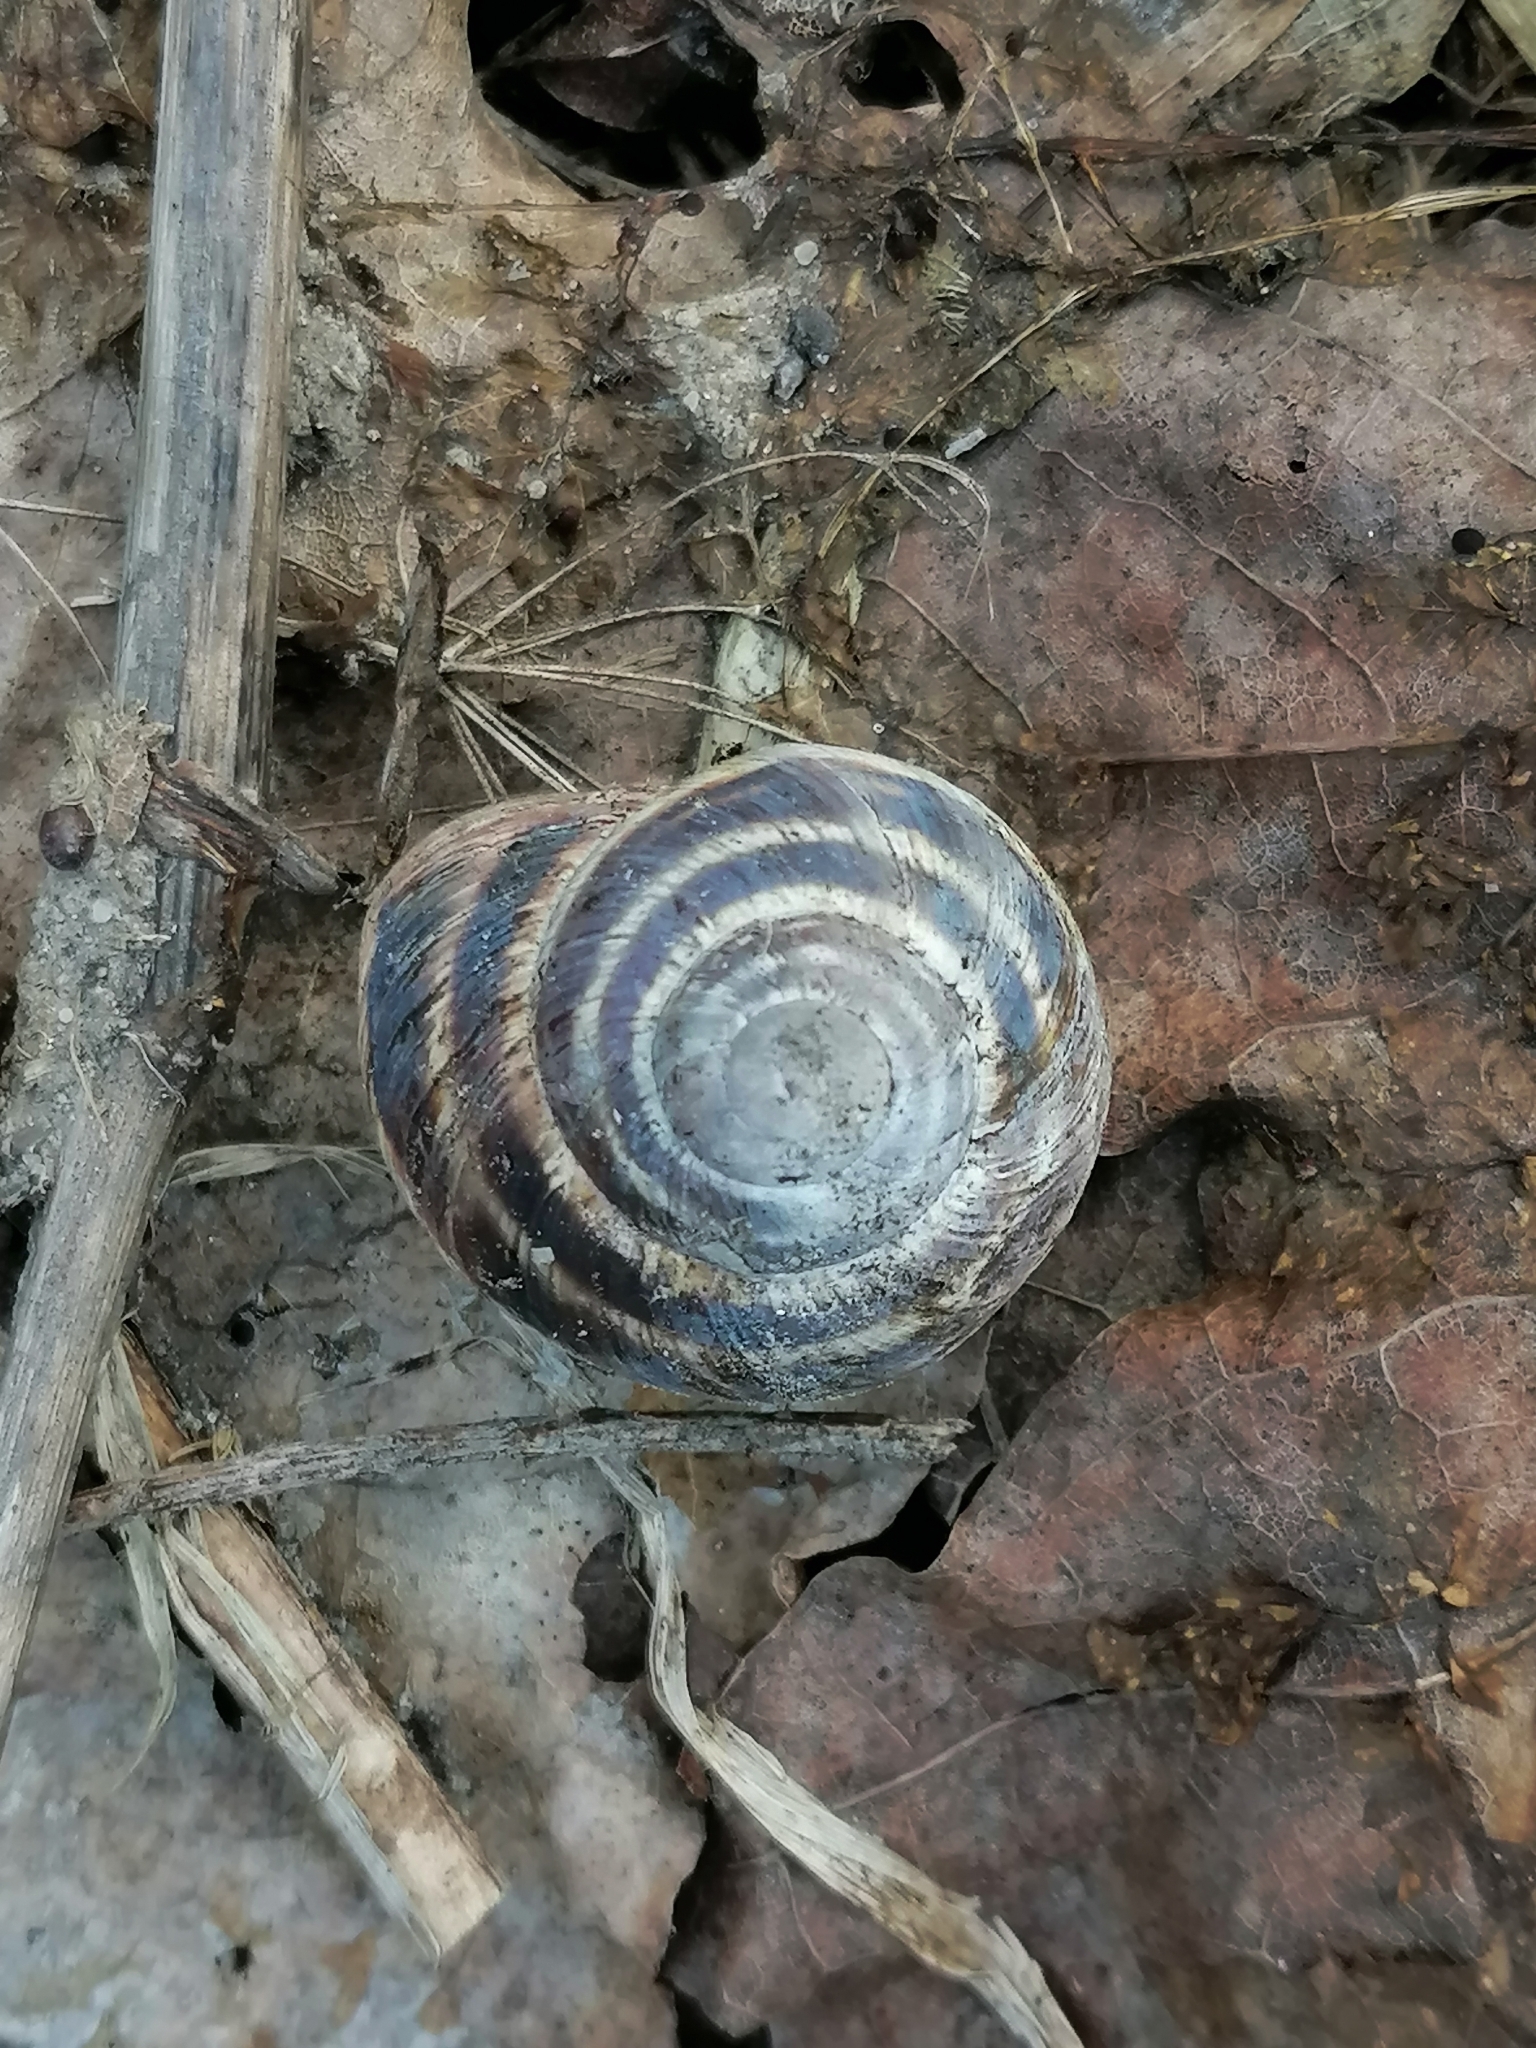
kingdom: Animalia
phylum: Mollusca
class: Gastropoda
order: Stylommatophora
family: Helicidae
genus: Helix
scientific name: Helix albescens
